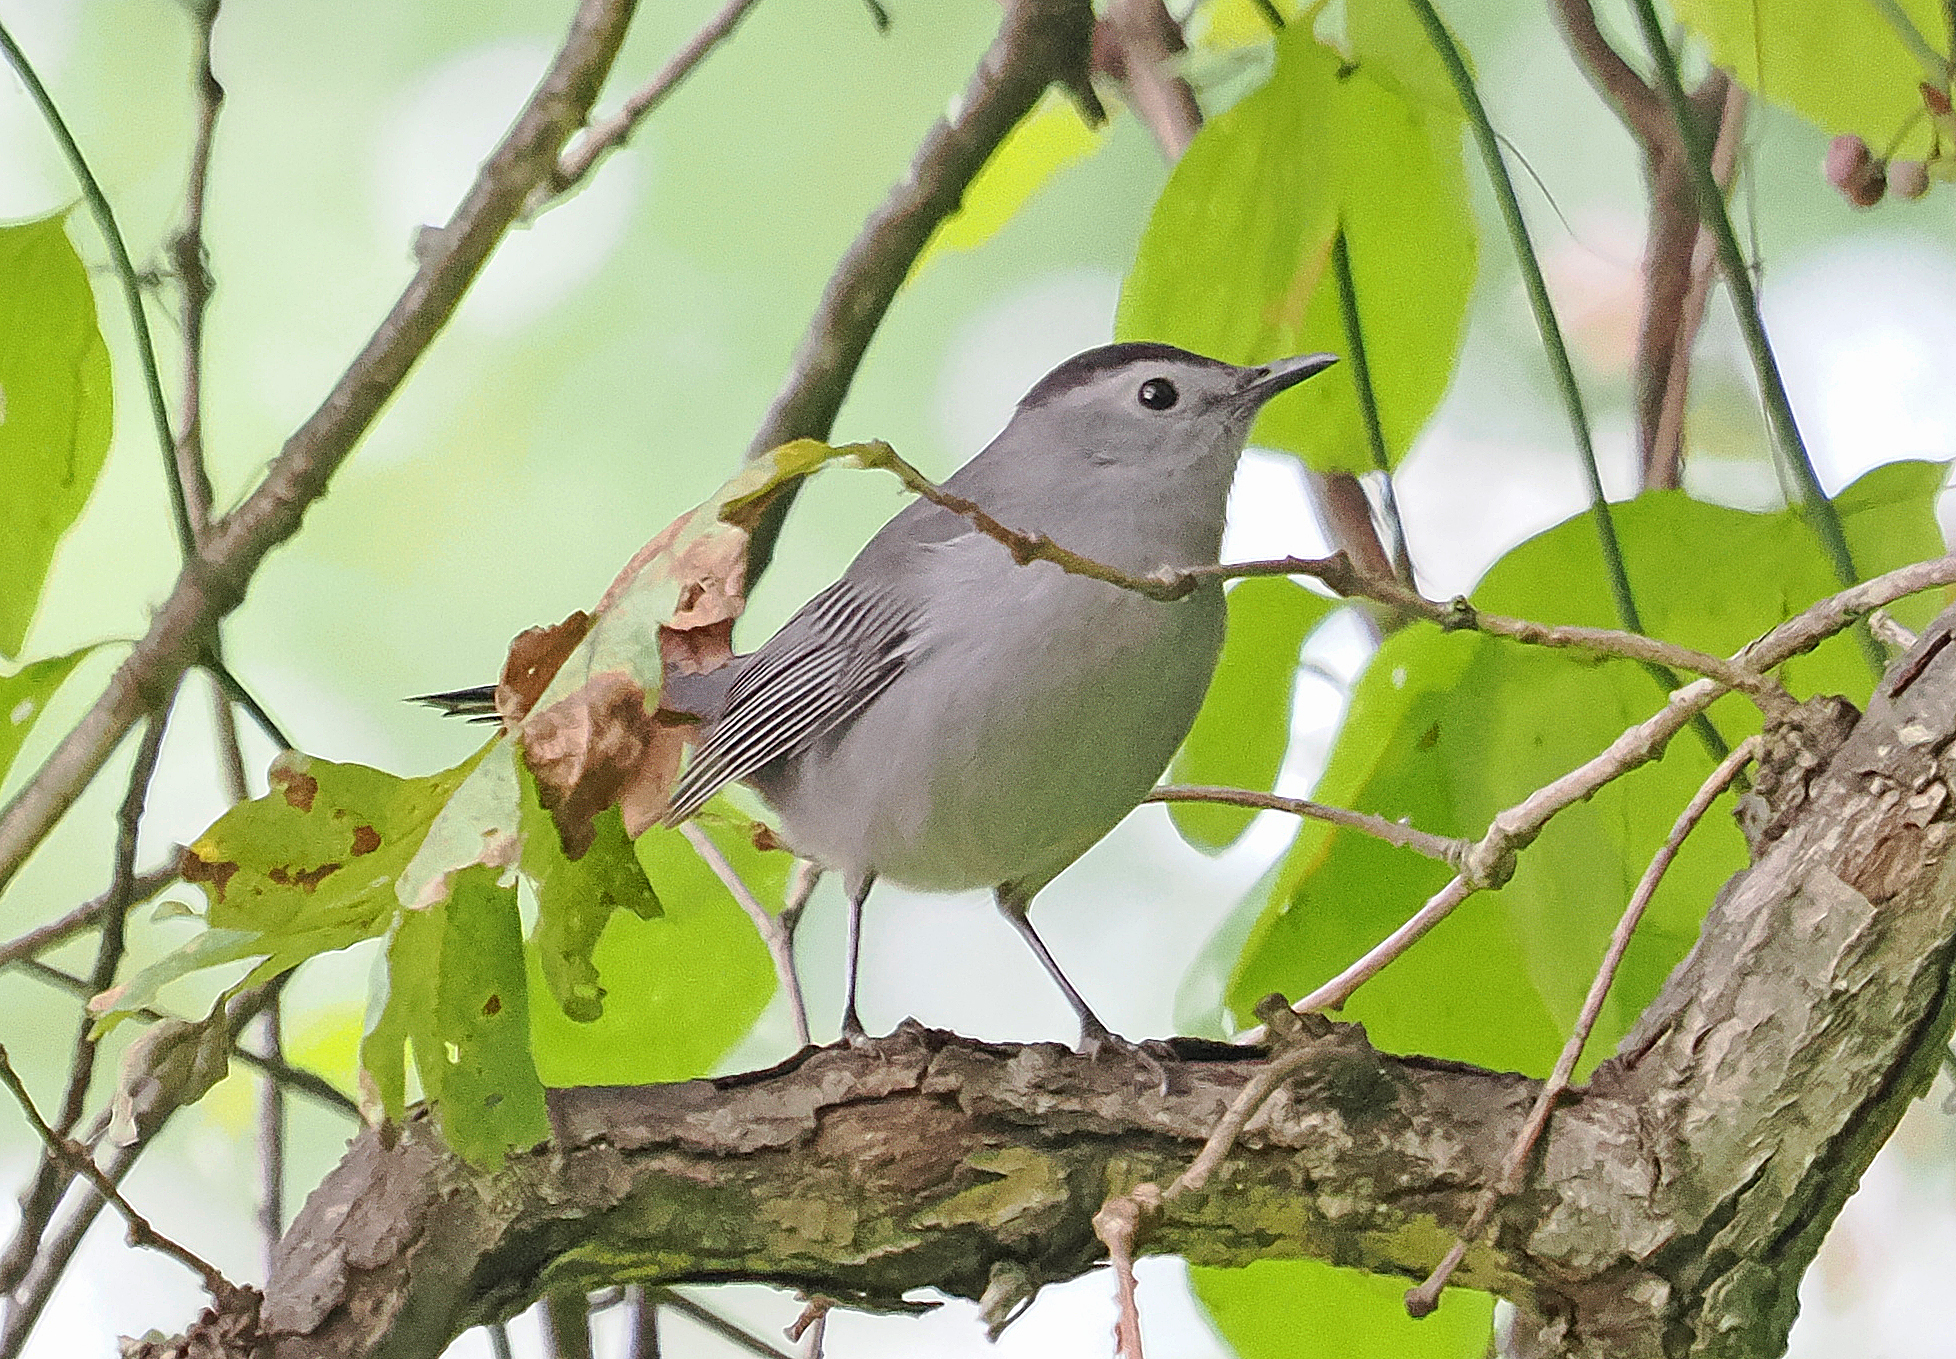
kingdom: Animalia
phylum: Chordata
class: Aves
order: Passeriformes
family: Mimidae
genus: Dumetella
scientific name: Dumetella carolinensis
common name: Gray catbird
